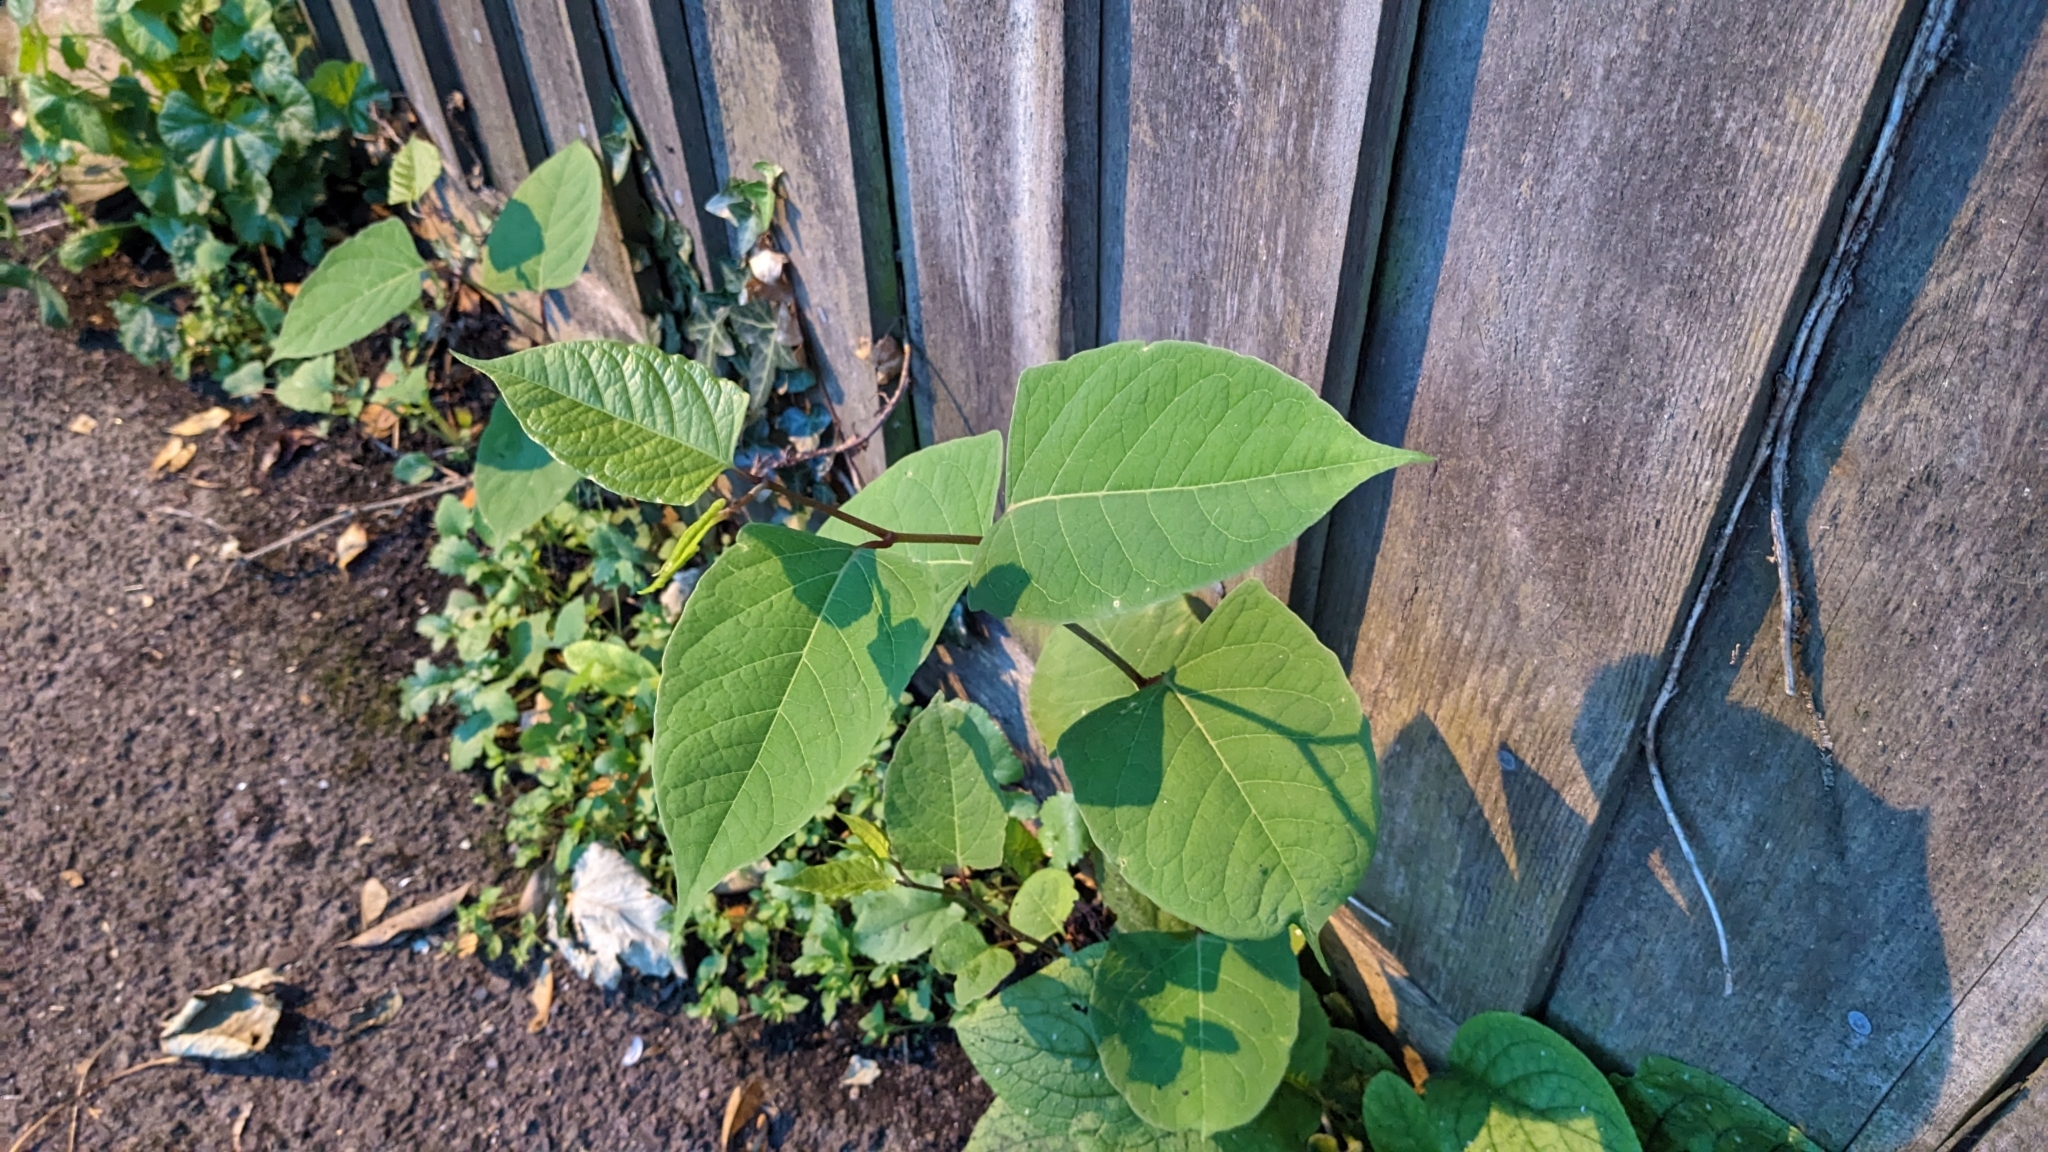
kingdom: Plantae
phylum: Tracheophyta
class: Magnoliopsida
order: Caryophyllales
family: Polygonaceae
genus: Reynoutria
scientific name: Reynoutria japonica
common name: Japanese knotweed
